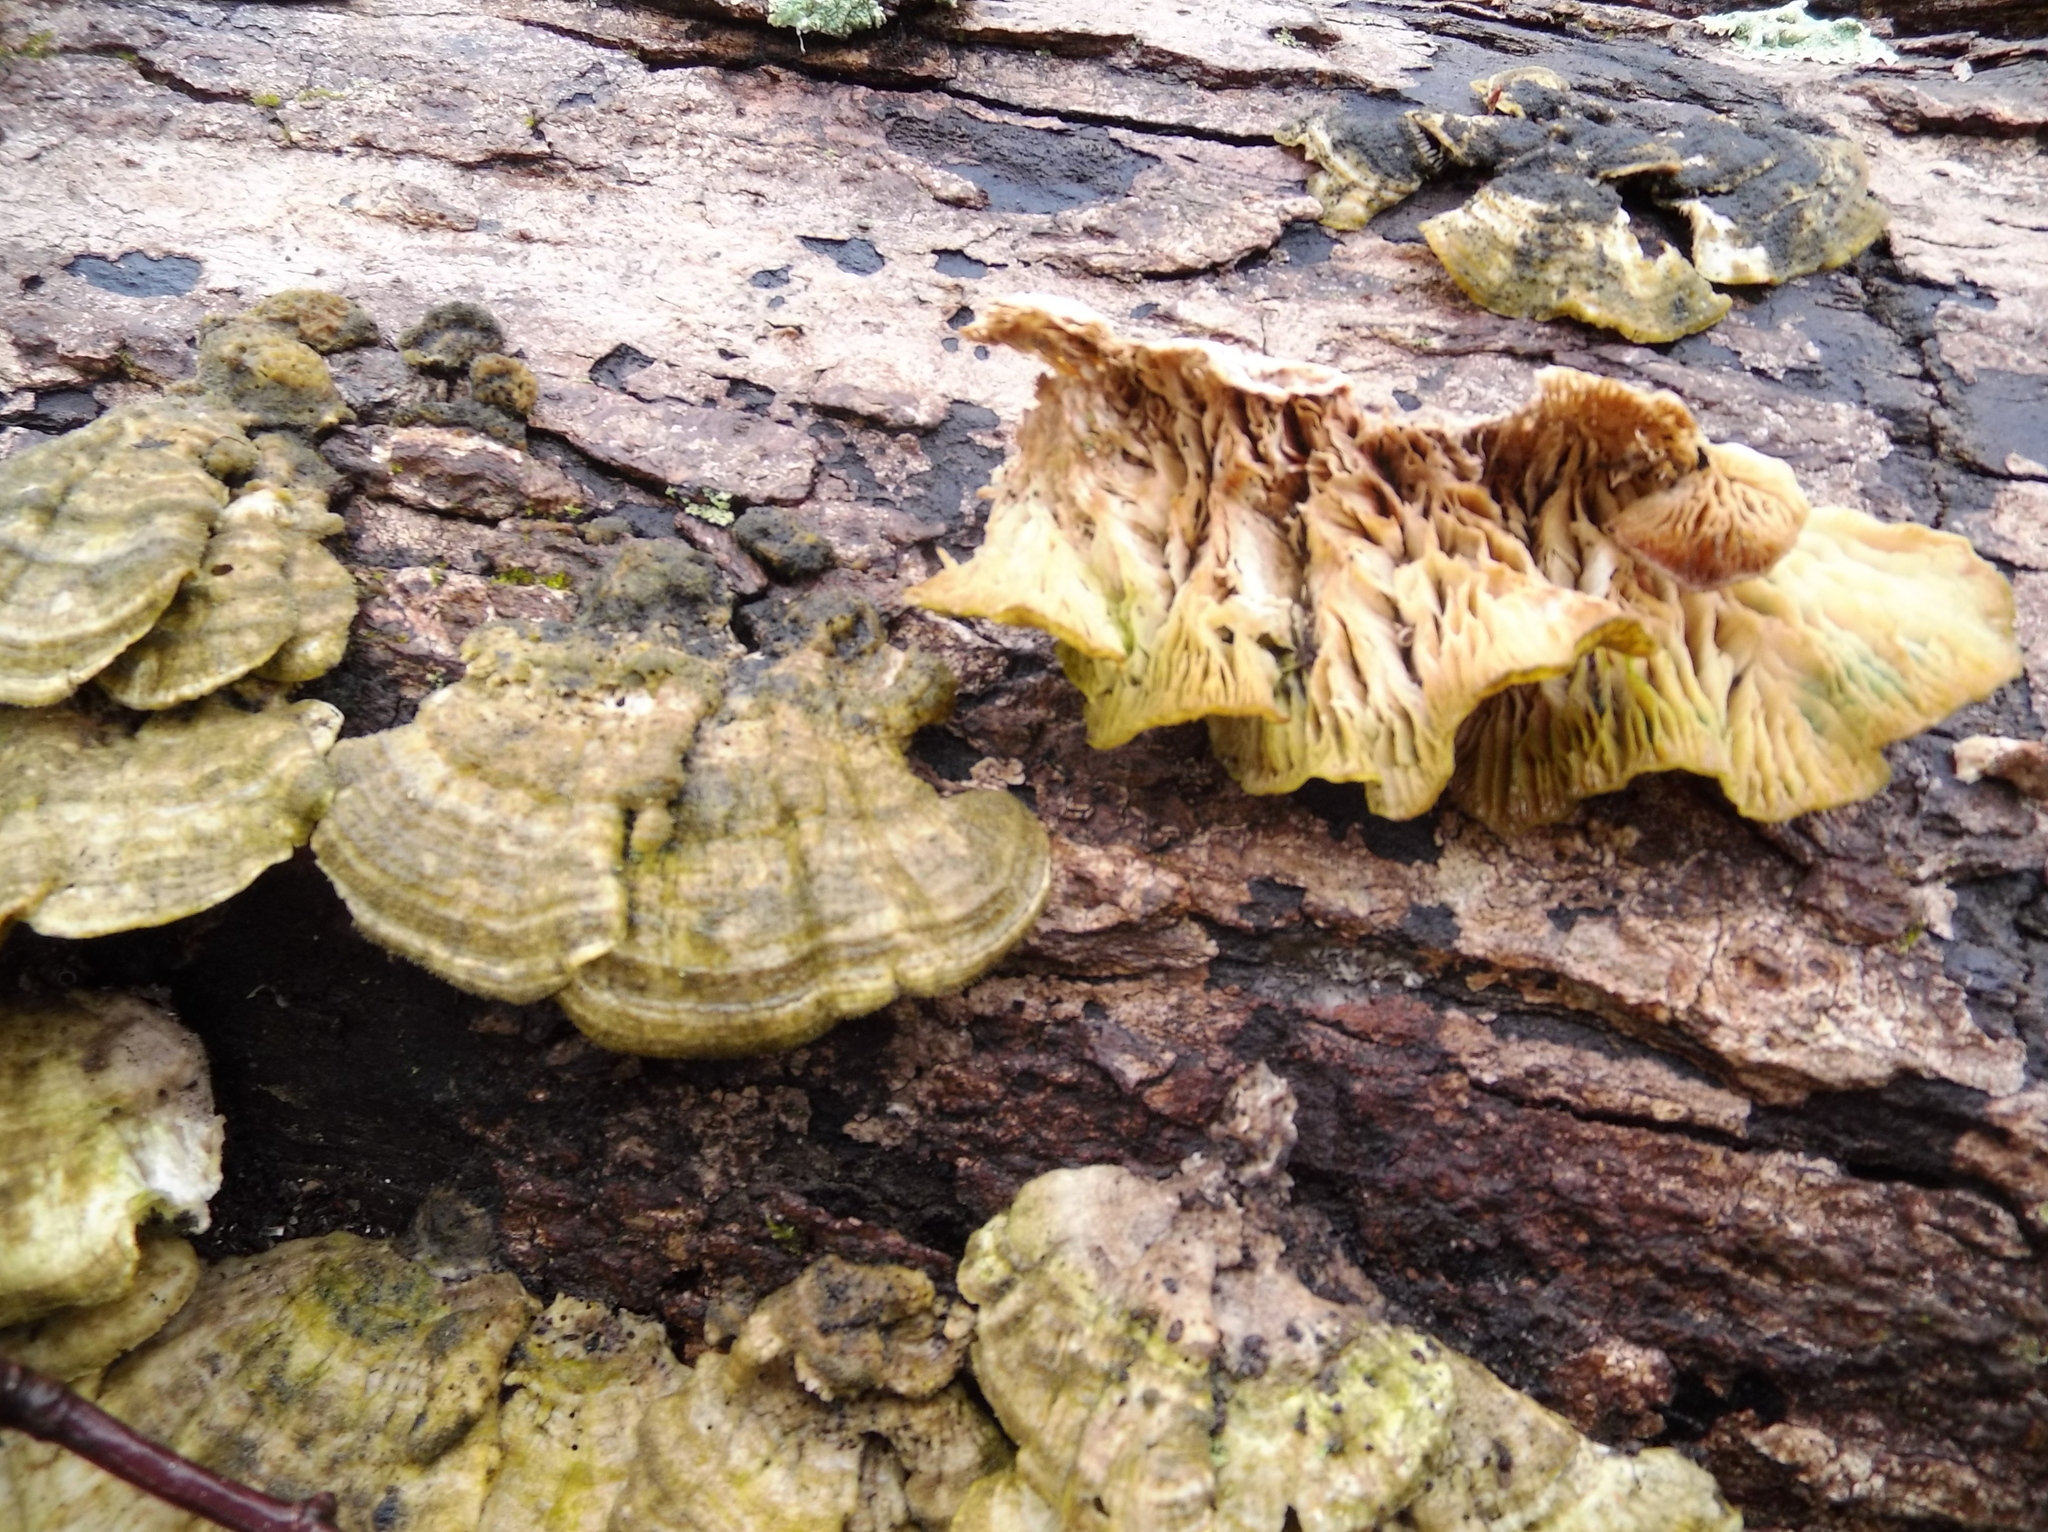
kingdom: Fungi
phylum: Basidiomycota
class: Agaricomycetes
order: Polyporales
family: Polyporaceae
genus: Lenzites
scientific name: Lenzites betulinus
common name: Birch mazegill
